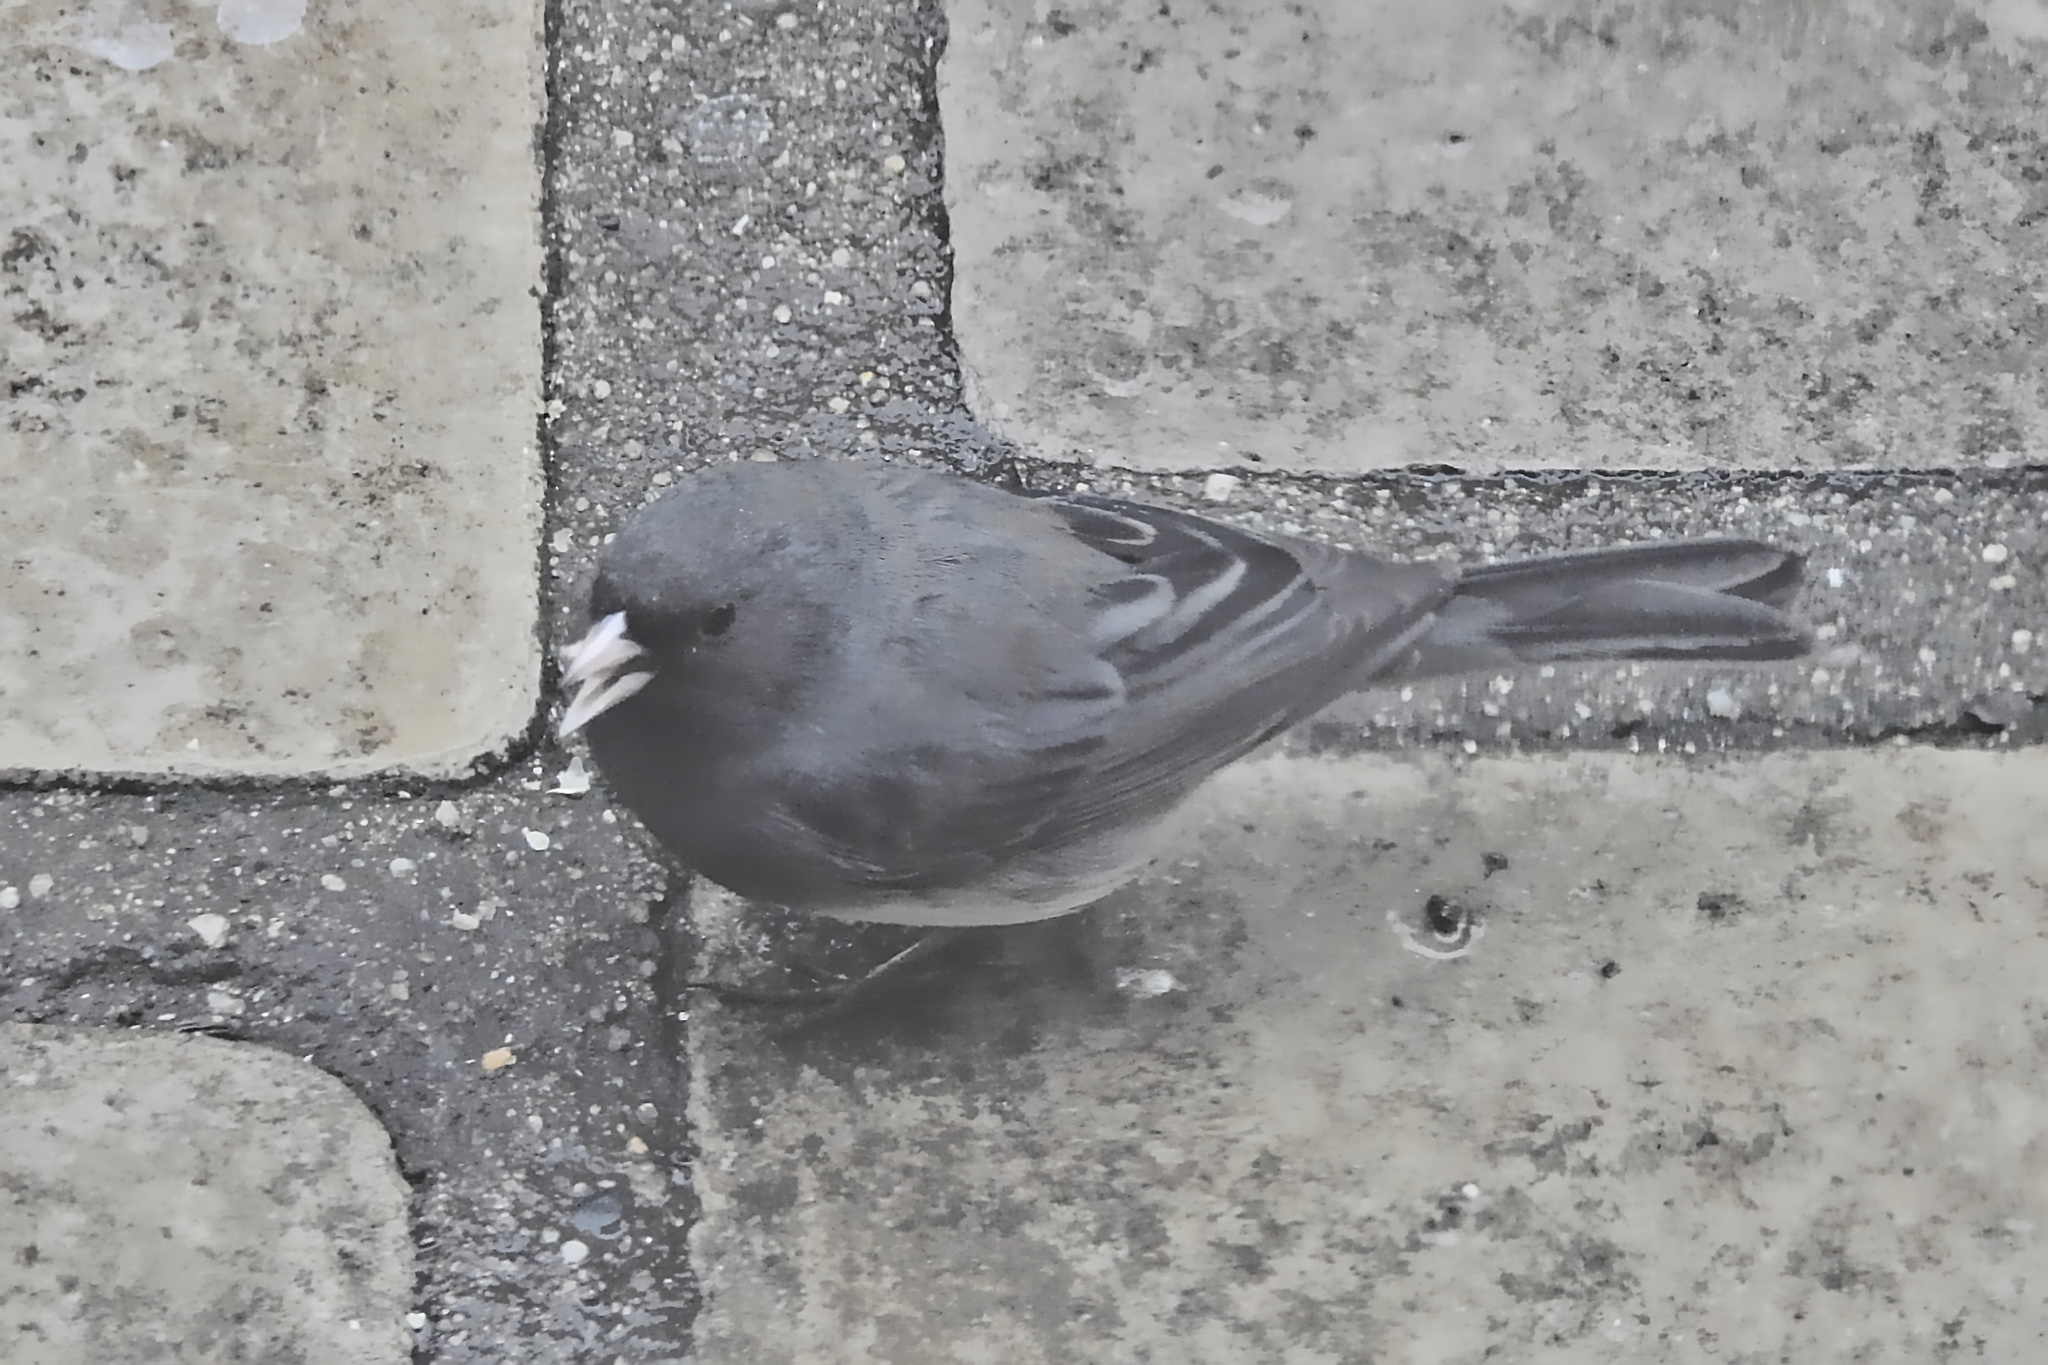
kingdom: Animalia
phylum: Chordata
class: Aves
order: Passeriformes
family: Passerellidae
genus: Junco
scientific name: Junco hyemalis
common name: Dark-eyed junco
